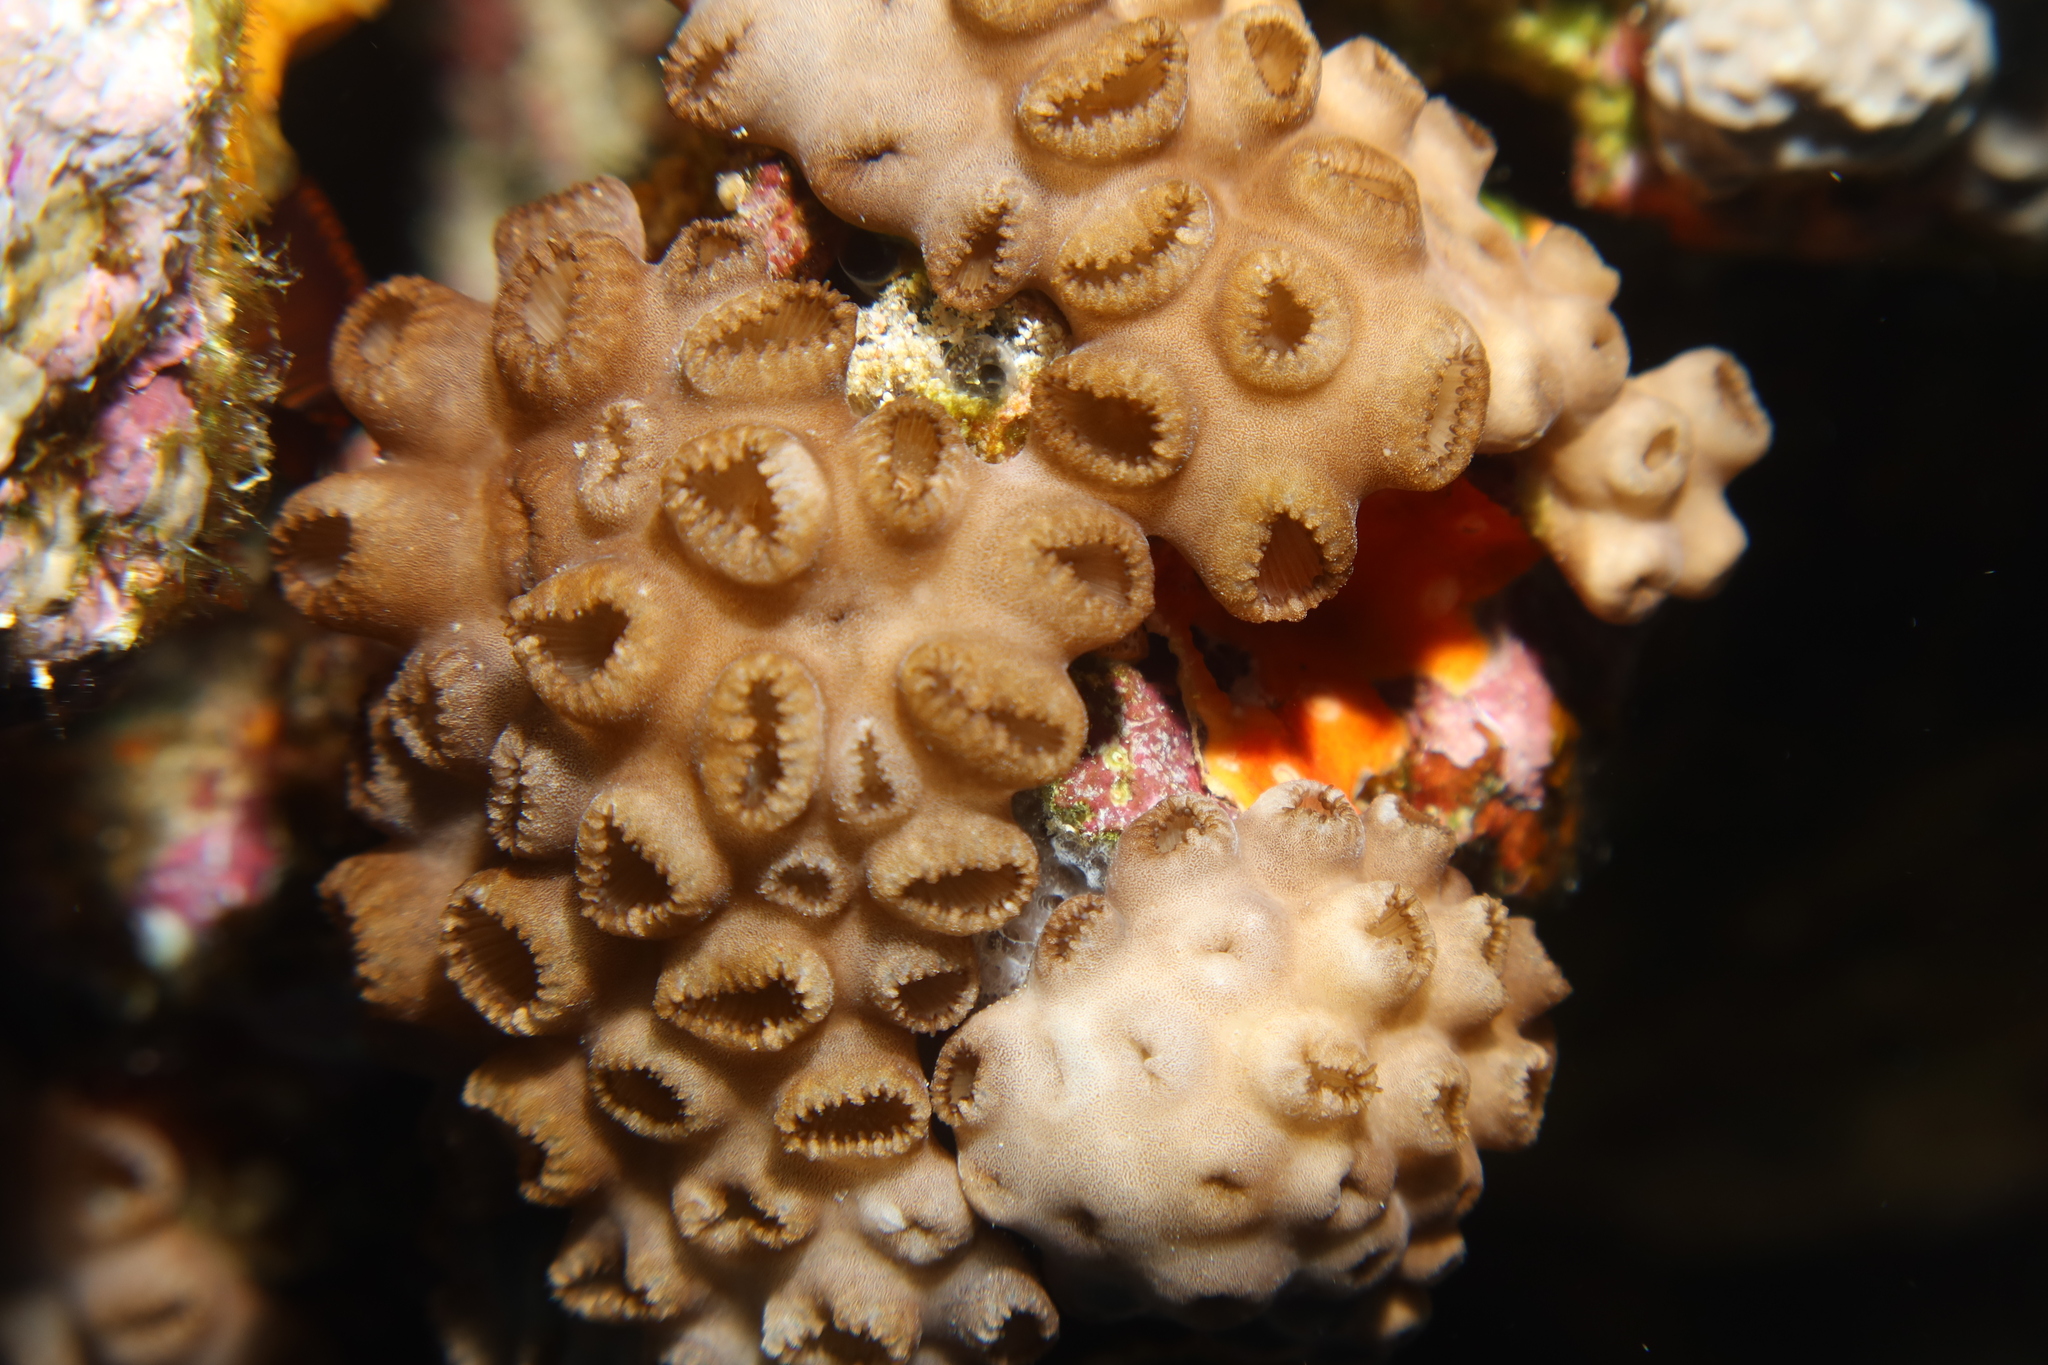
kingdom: Animalia
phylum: Cnidaria
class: Anthozoa
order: Zoantharia
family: Sphenopidae
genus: Palythoa
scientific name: Palythoa tuberculosa
